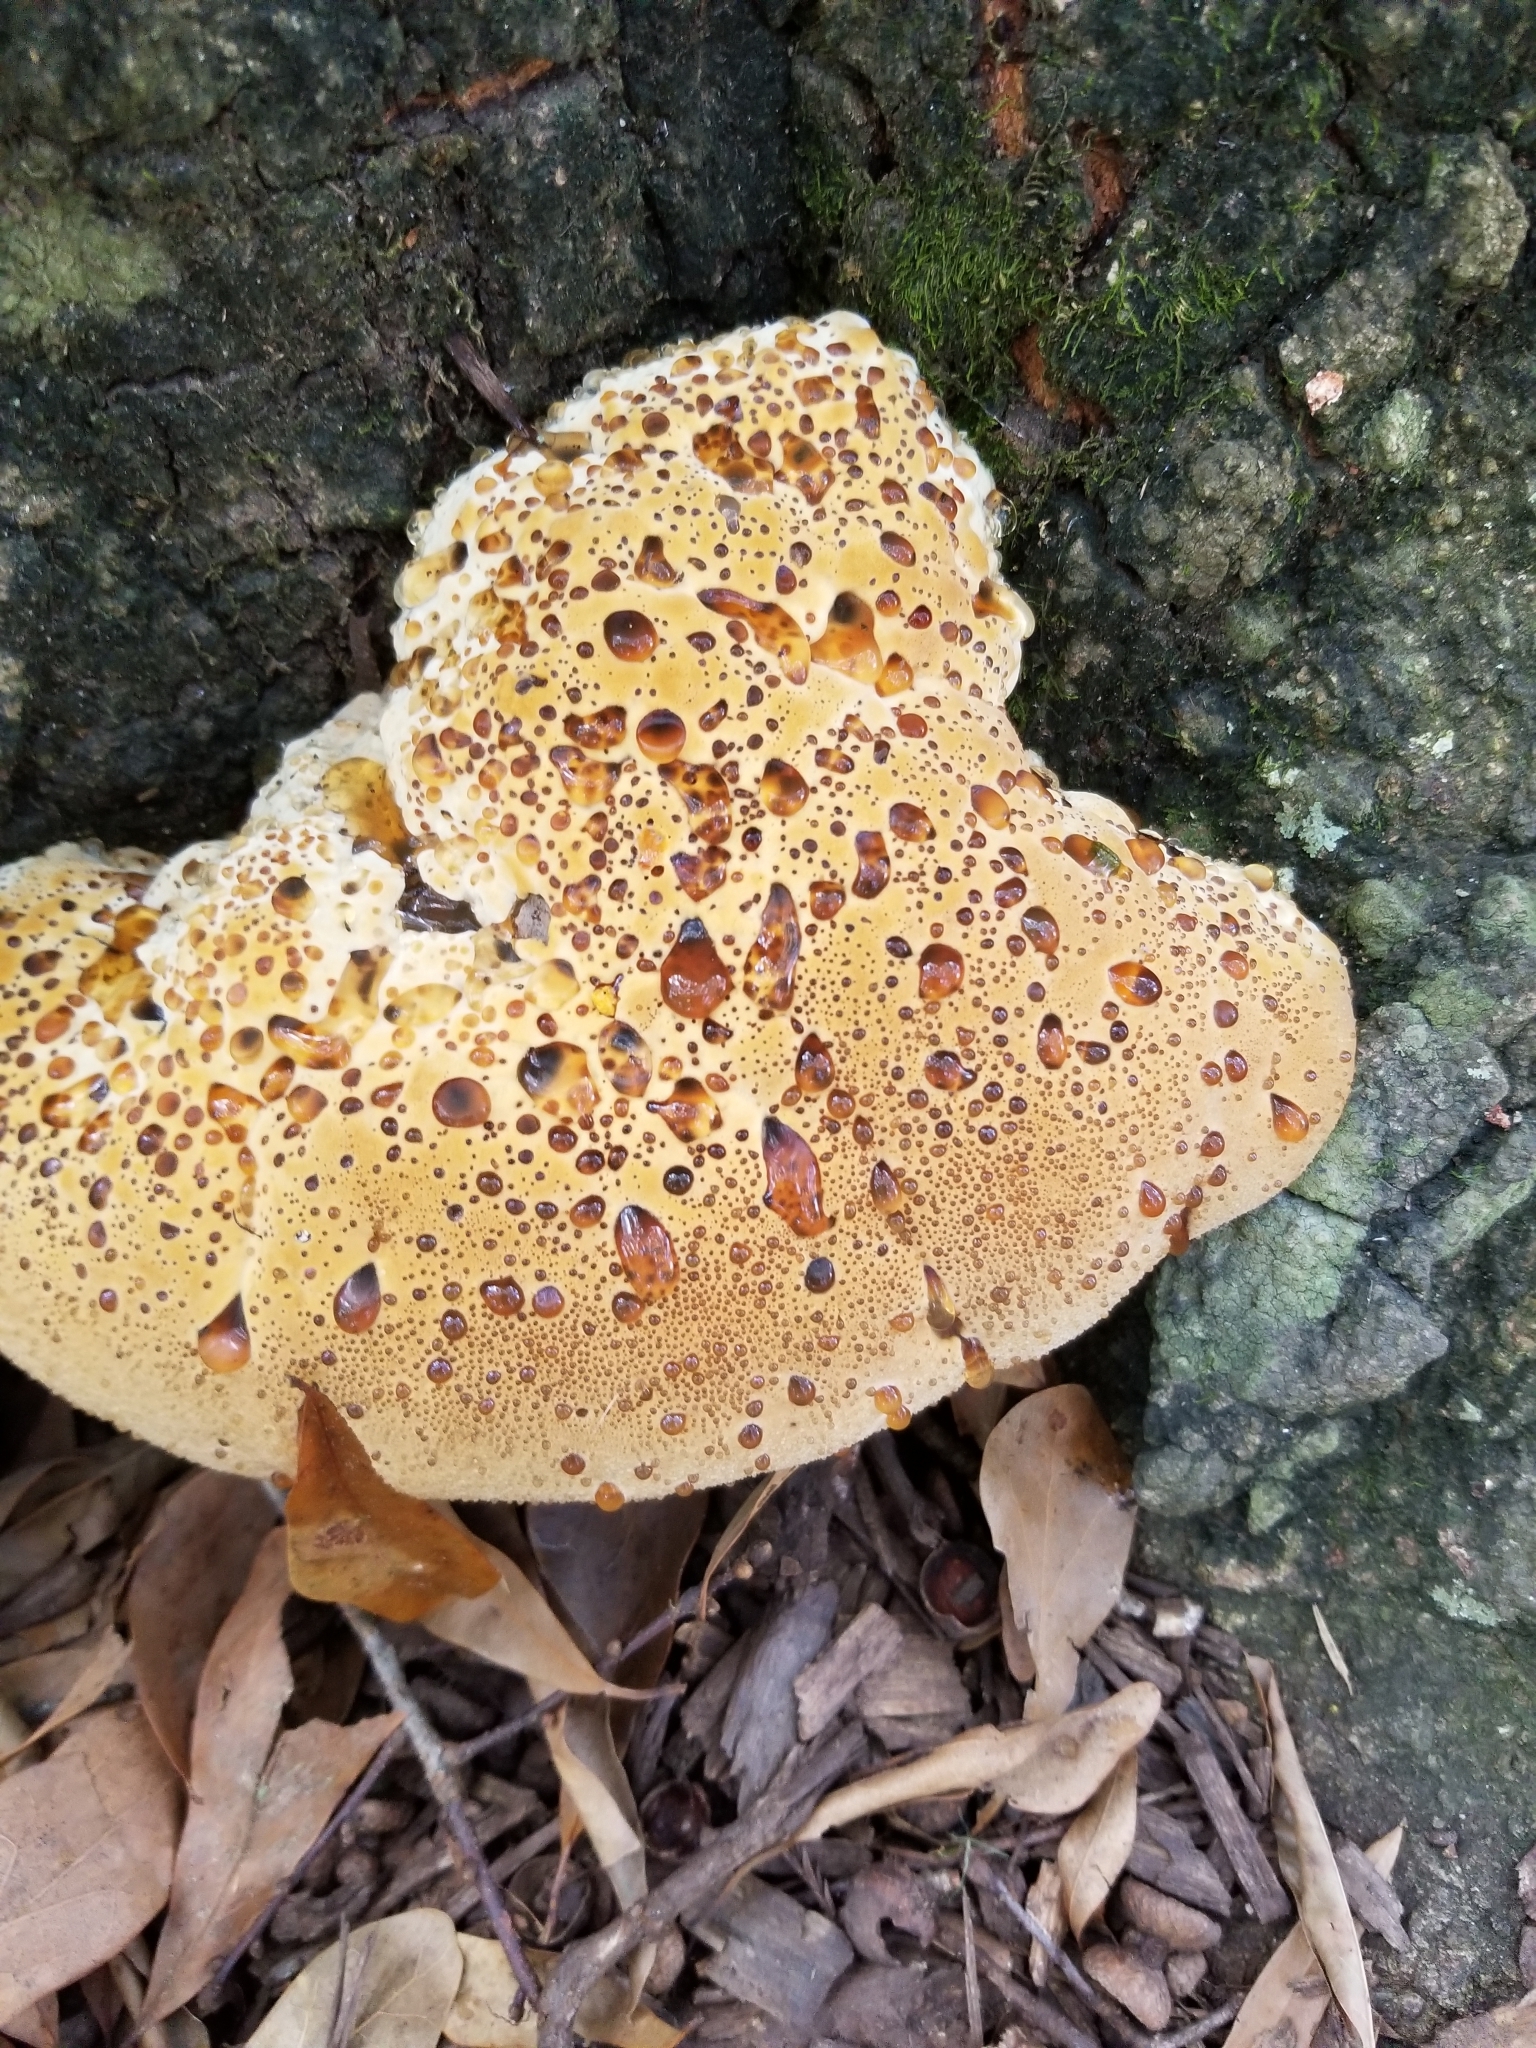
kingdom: Fungi
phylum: Basidiomycota
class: Agaricomycetes
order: Hymenochaetales
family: Hymenochaetaceae
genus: Pseudoinonotus
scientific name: Pseudoinonotus dryadeus
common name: Oak bracket
